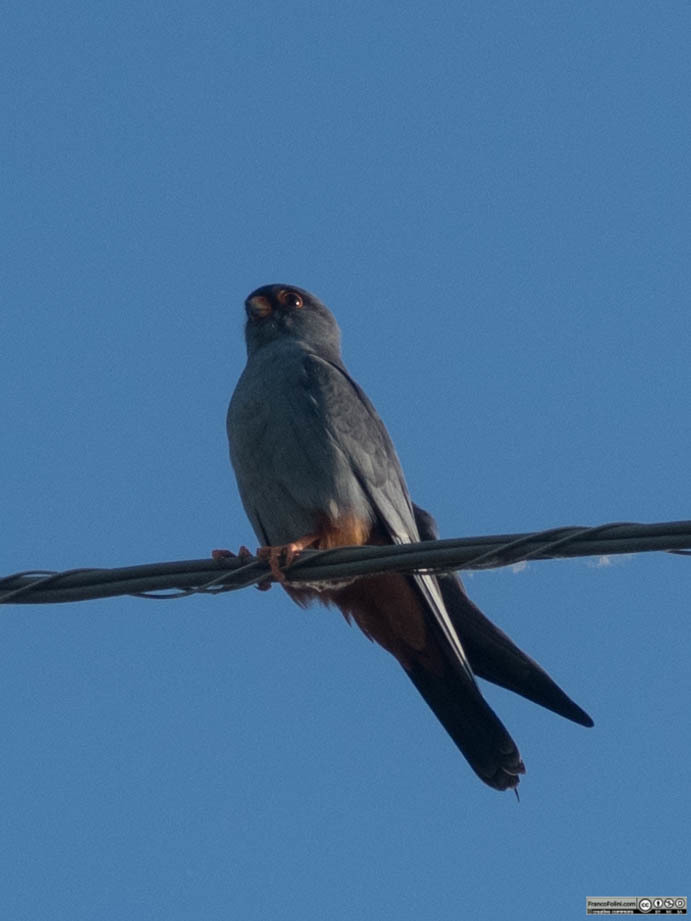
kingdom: Animalia
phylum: Chordata
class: Aves
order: Falconiformes
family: Falconidae
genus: Falco
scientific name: Falco vespertinus
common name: Red-footed falcon
